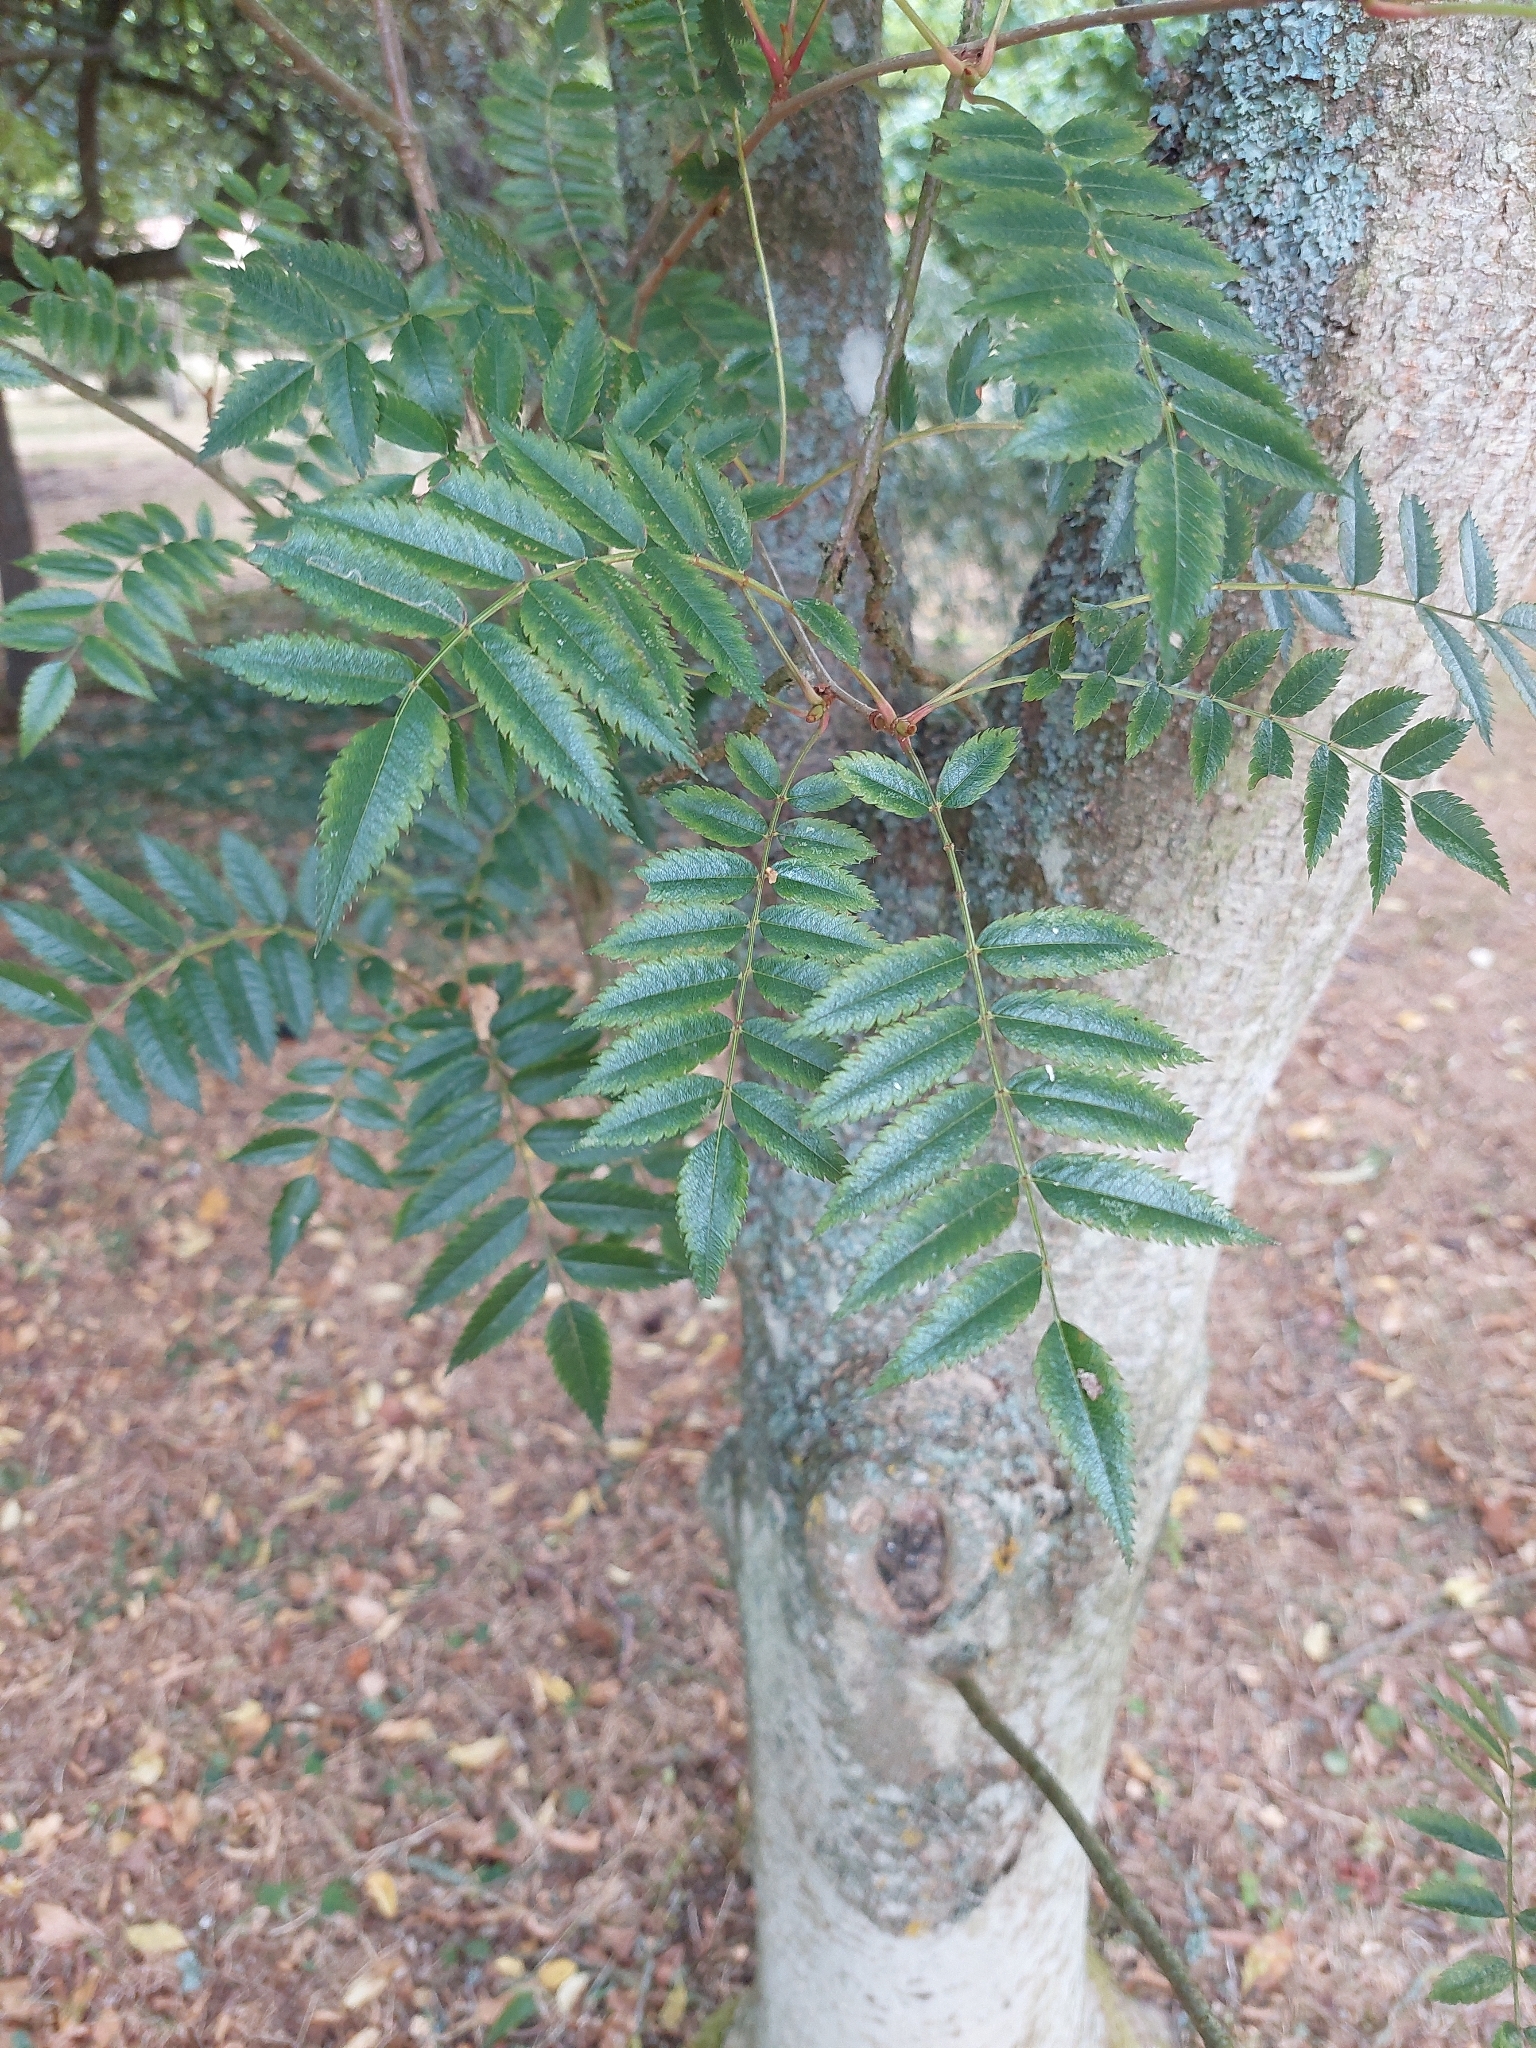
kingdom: Plantae
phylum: Tracheophyta
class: Magnoliopsida
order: Rosales
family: Rosaceae
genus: Sorbus
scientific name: Sorbus aucuparia
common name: Rowan
